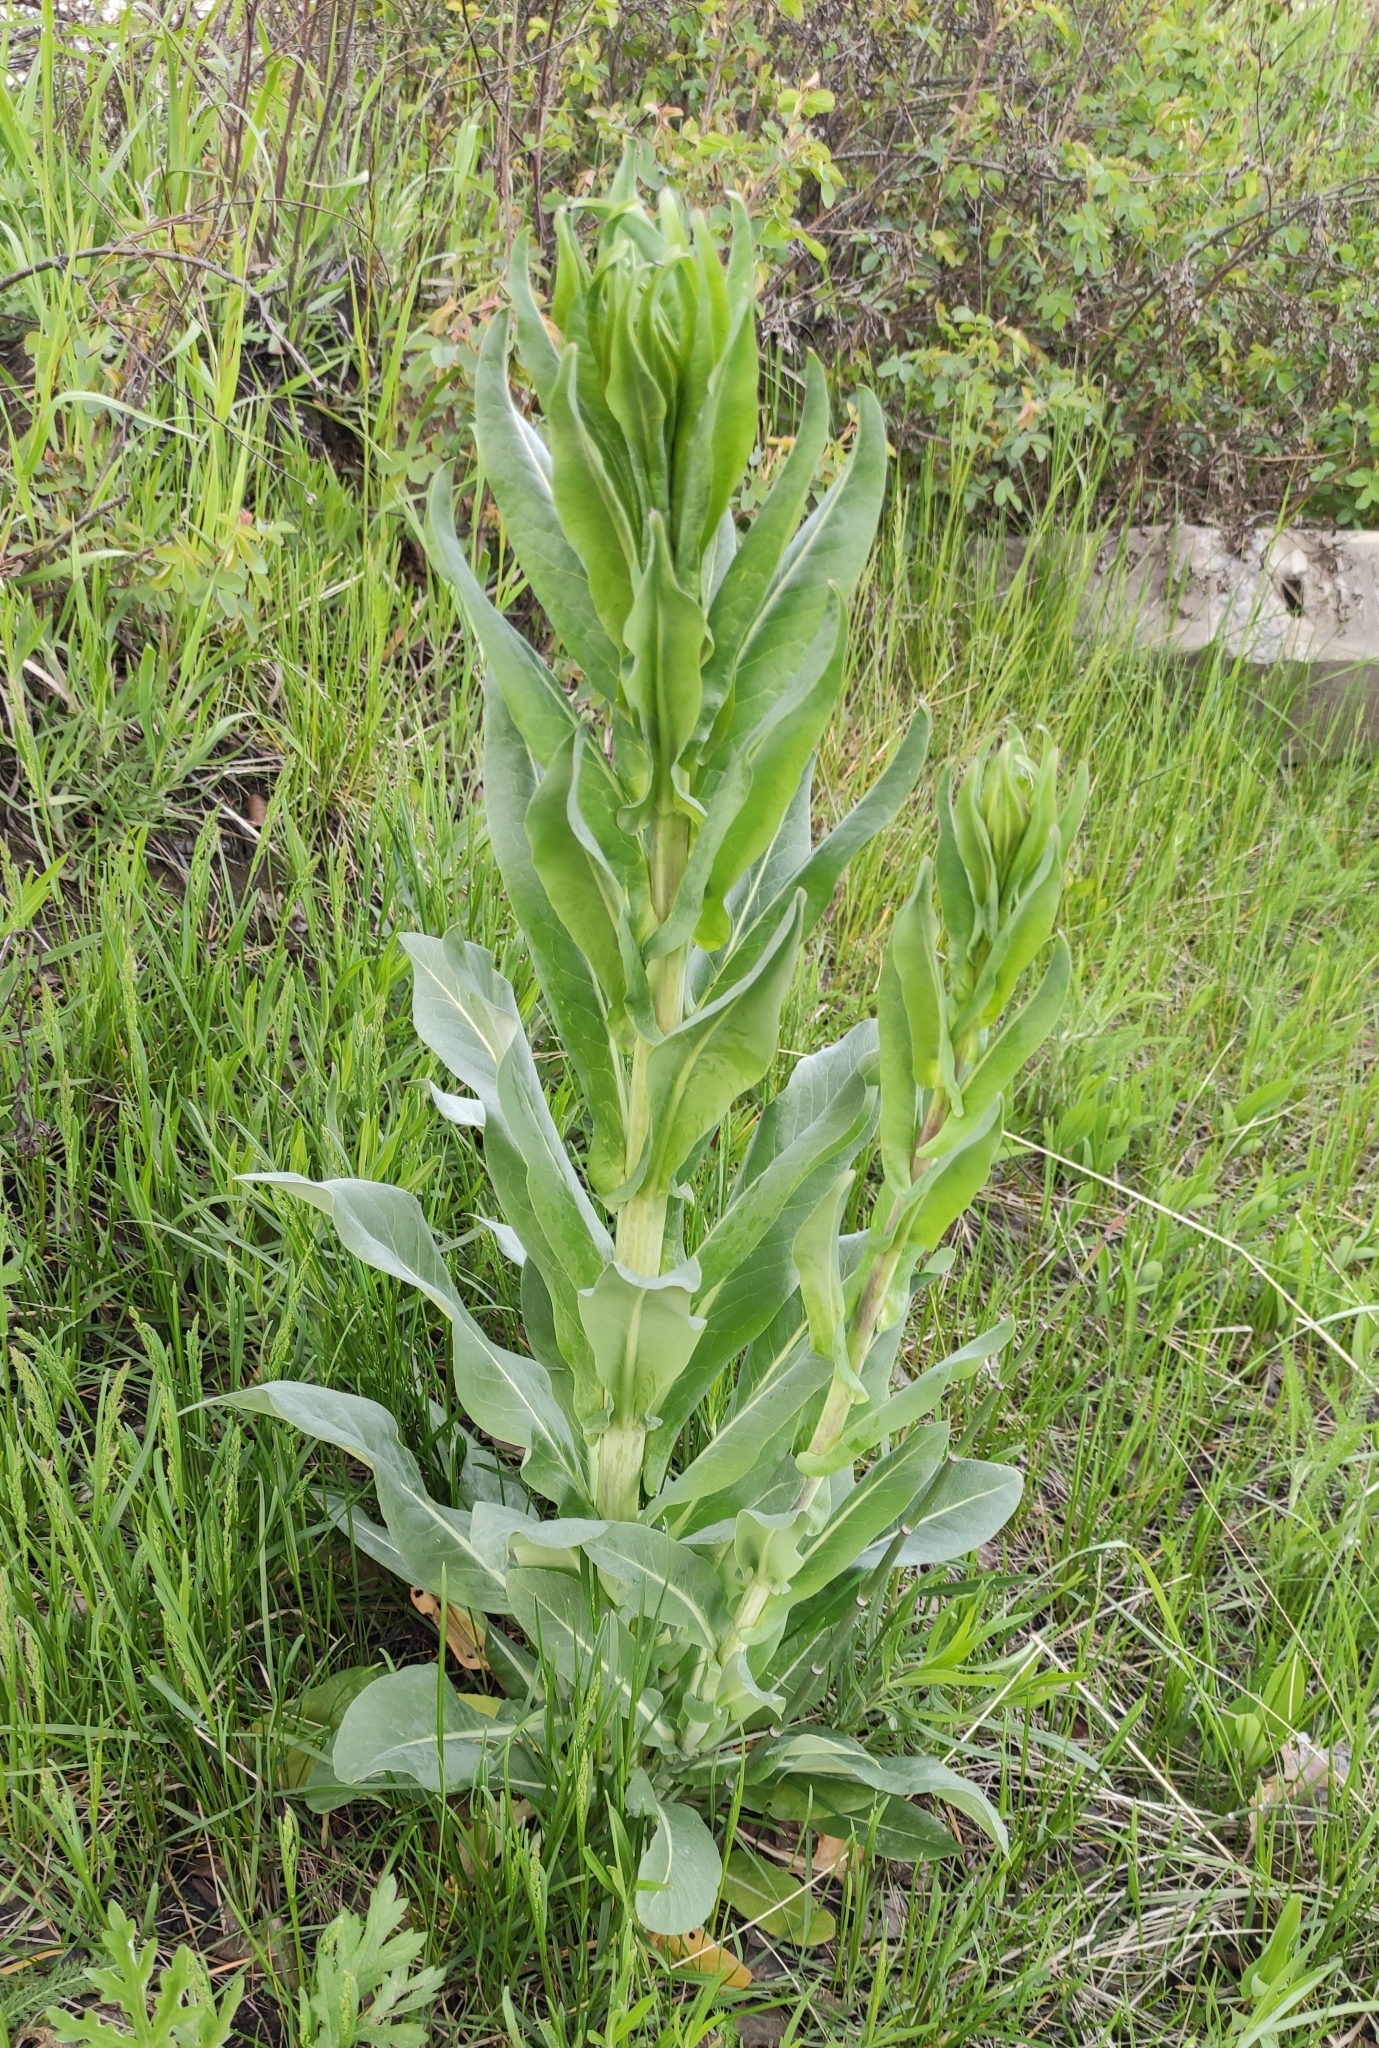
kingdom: Plantae
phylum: Tracheophyta
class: Magnoliopsida
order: Brassicales
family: Brassicaceae
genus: Isatis
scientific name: Isatis tinctoria
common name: Woad
